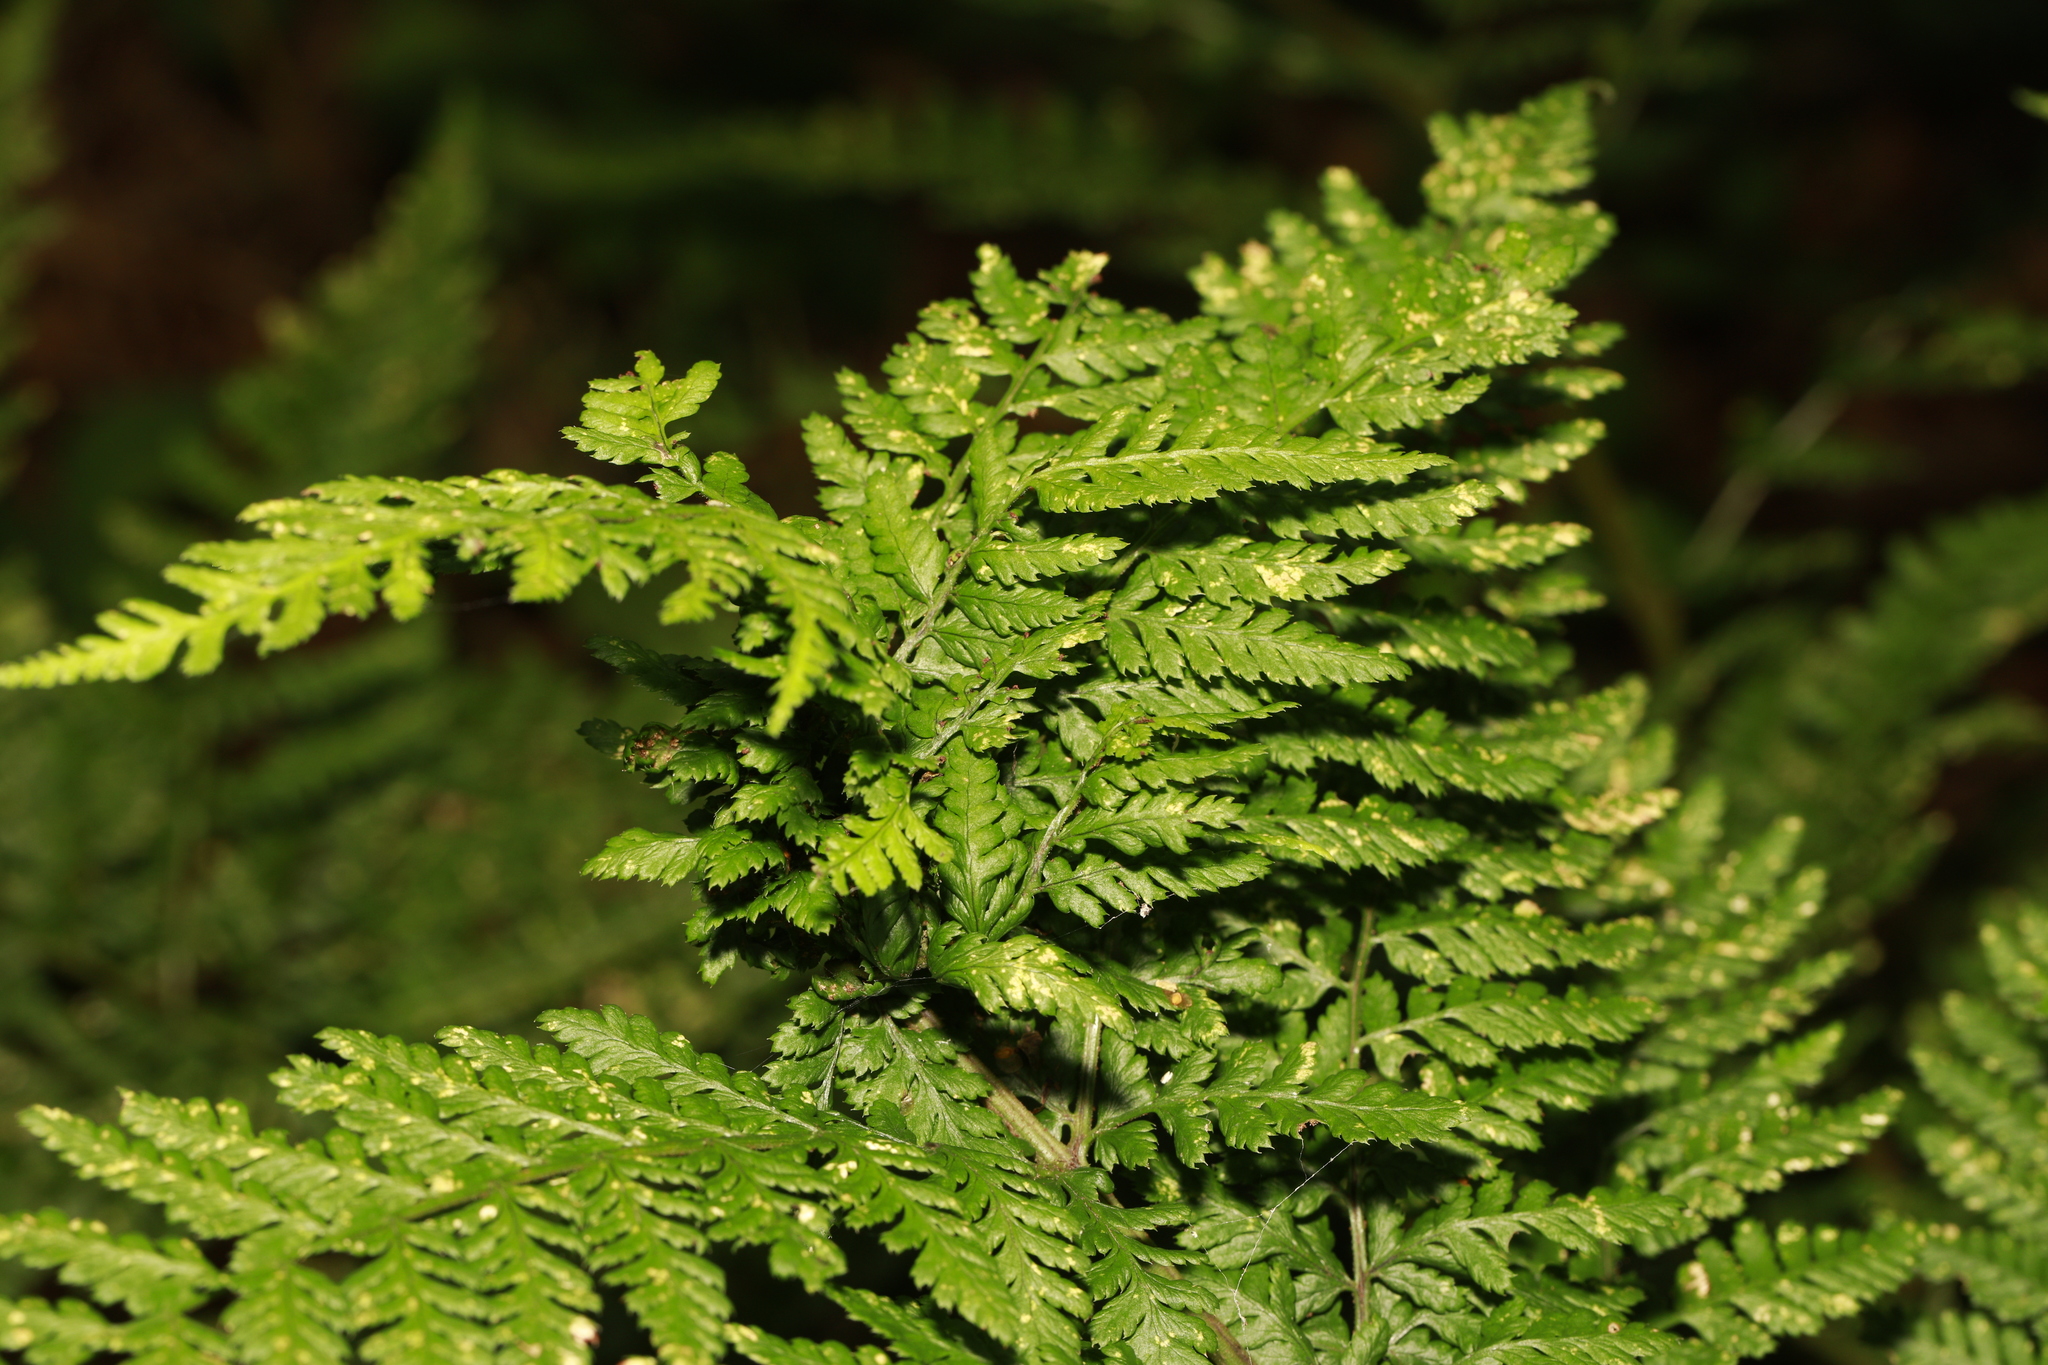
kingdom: Animalia
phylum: Arthropoda
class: Insecta
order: Diptera
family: Anthomyiidae
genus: Chirosia
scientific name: Chirosia betuleti
